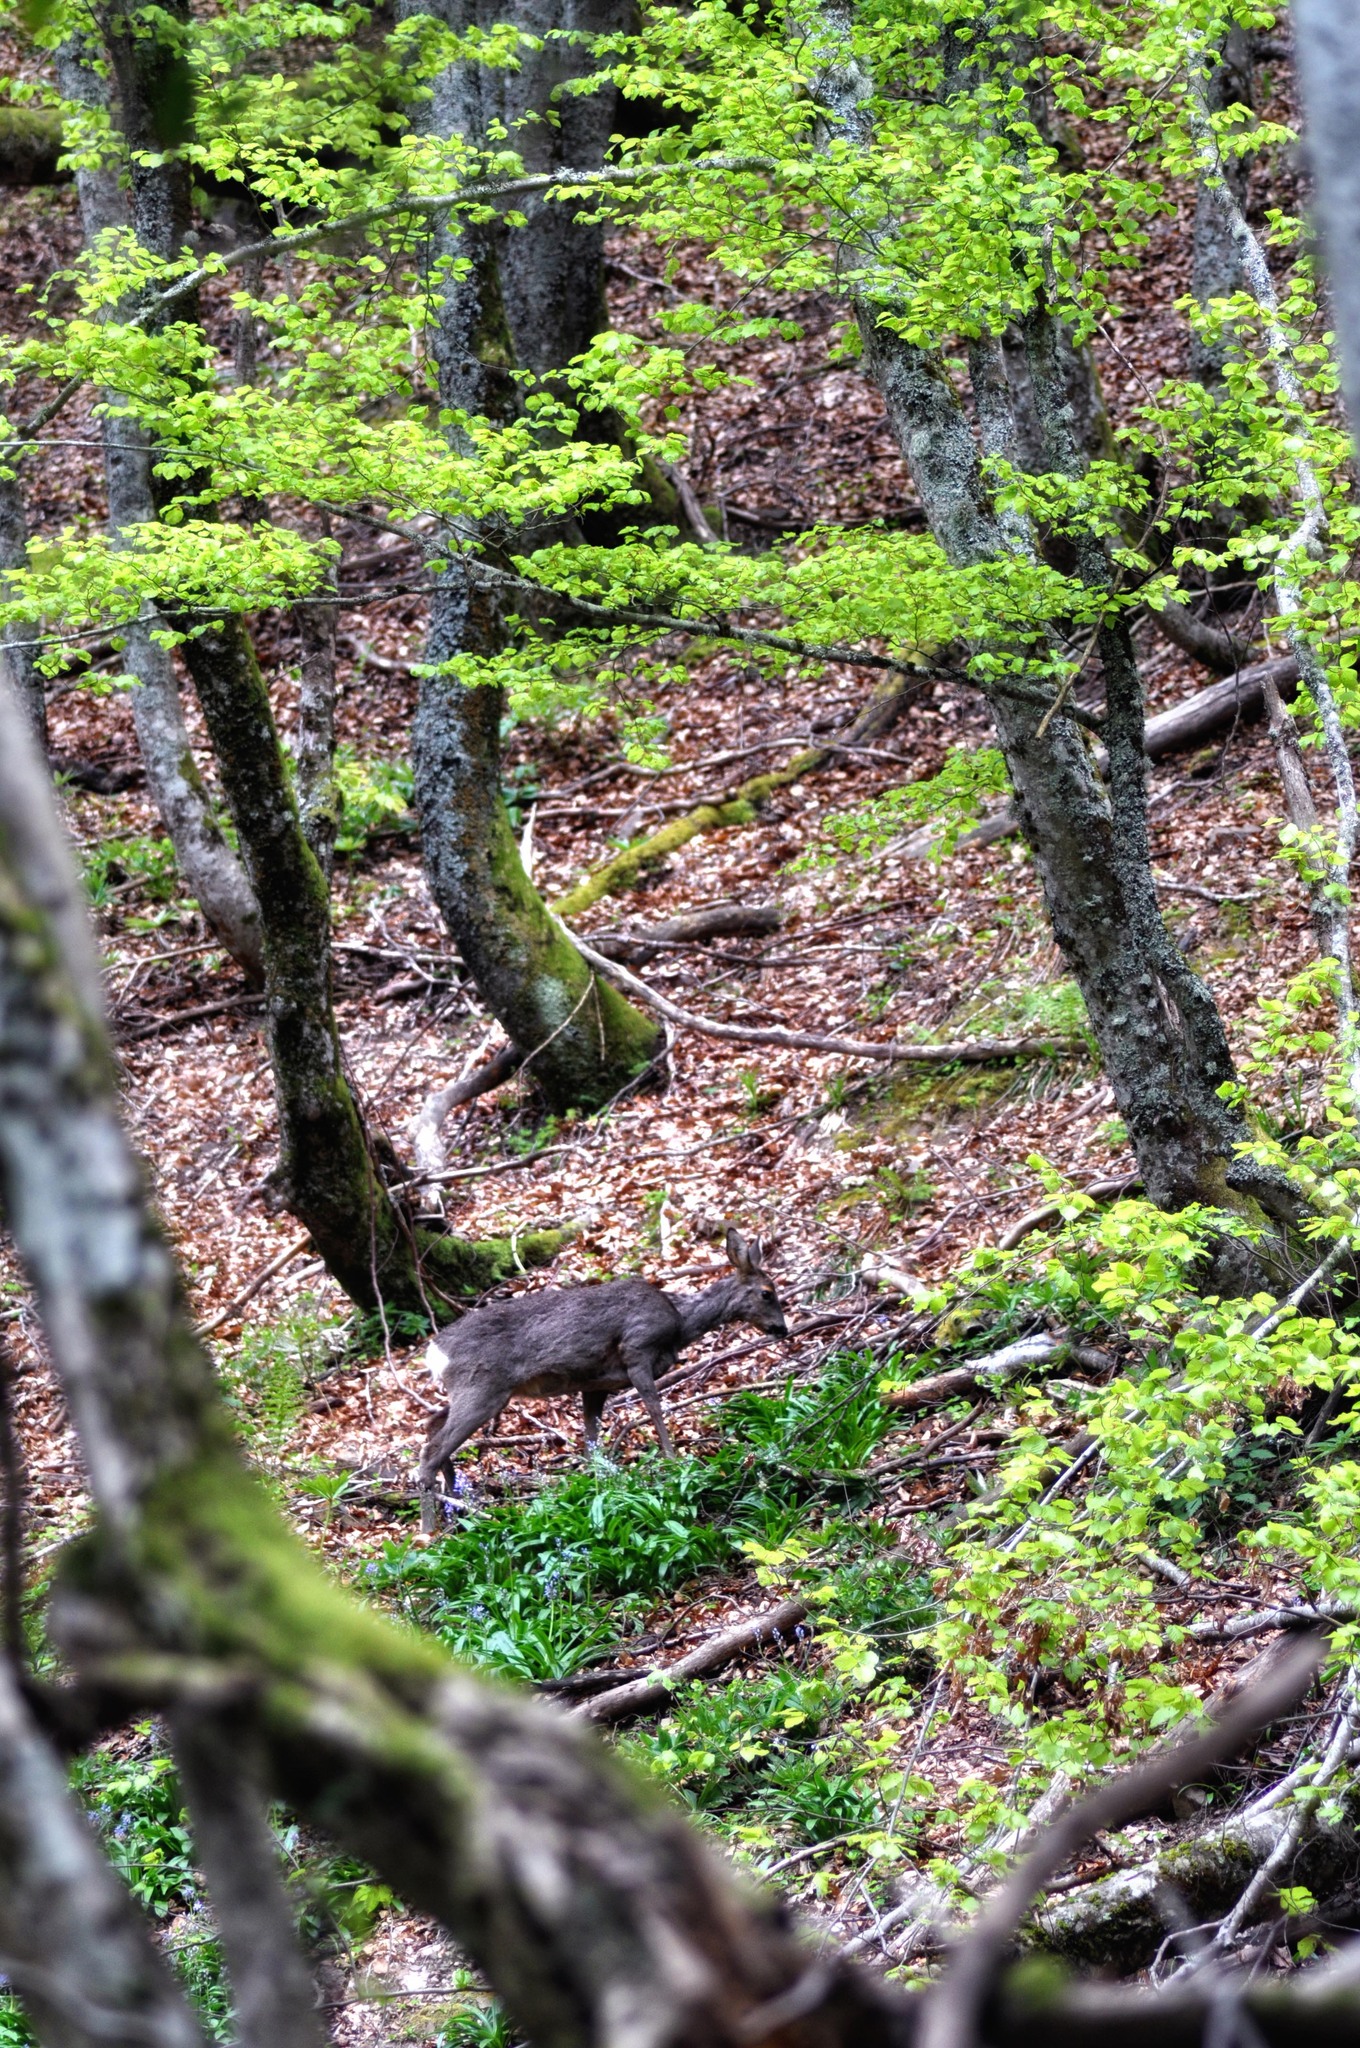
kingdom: Animalia
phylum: Chordata
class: Mammalia
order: Artiodactyla
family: Cervidae
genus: Capreolus
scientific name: Capreolus capreolus
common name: Western roe deer
